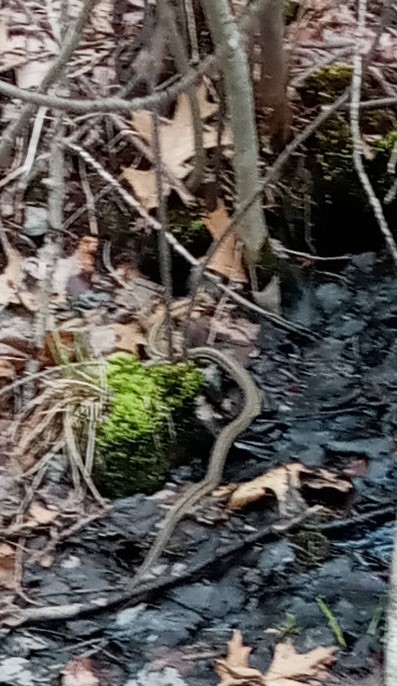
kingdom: Animalia
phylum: Chordata
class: Squamata
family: Colubridae
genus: Thamnophis
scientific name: Thamnophis sirtalis
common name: Common garter snake
